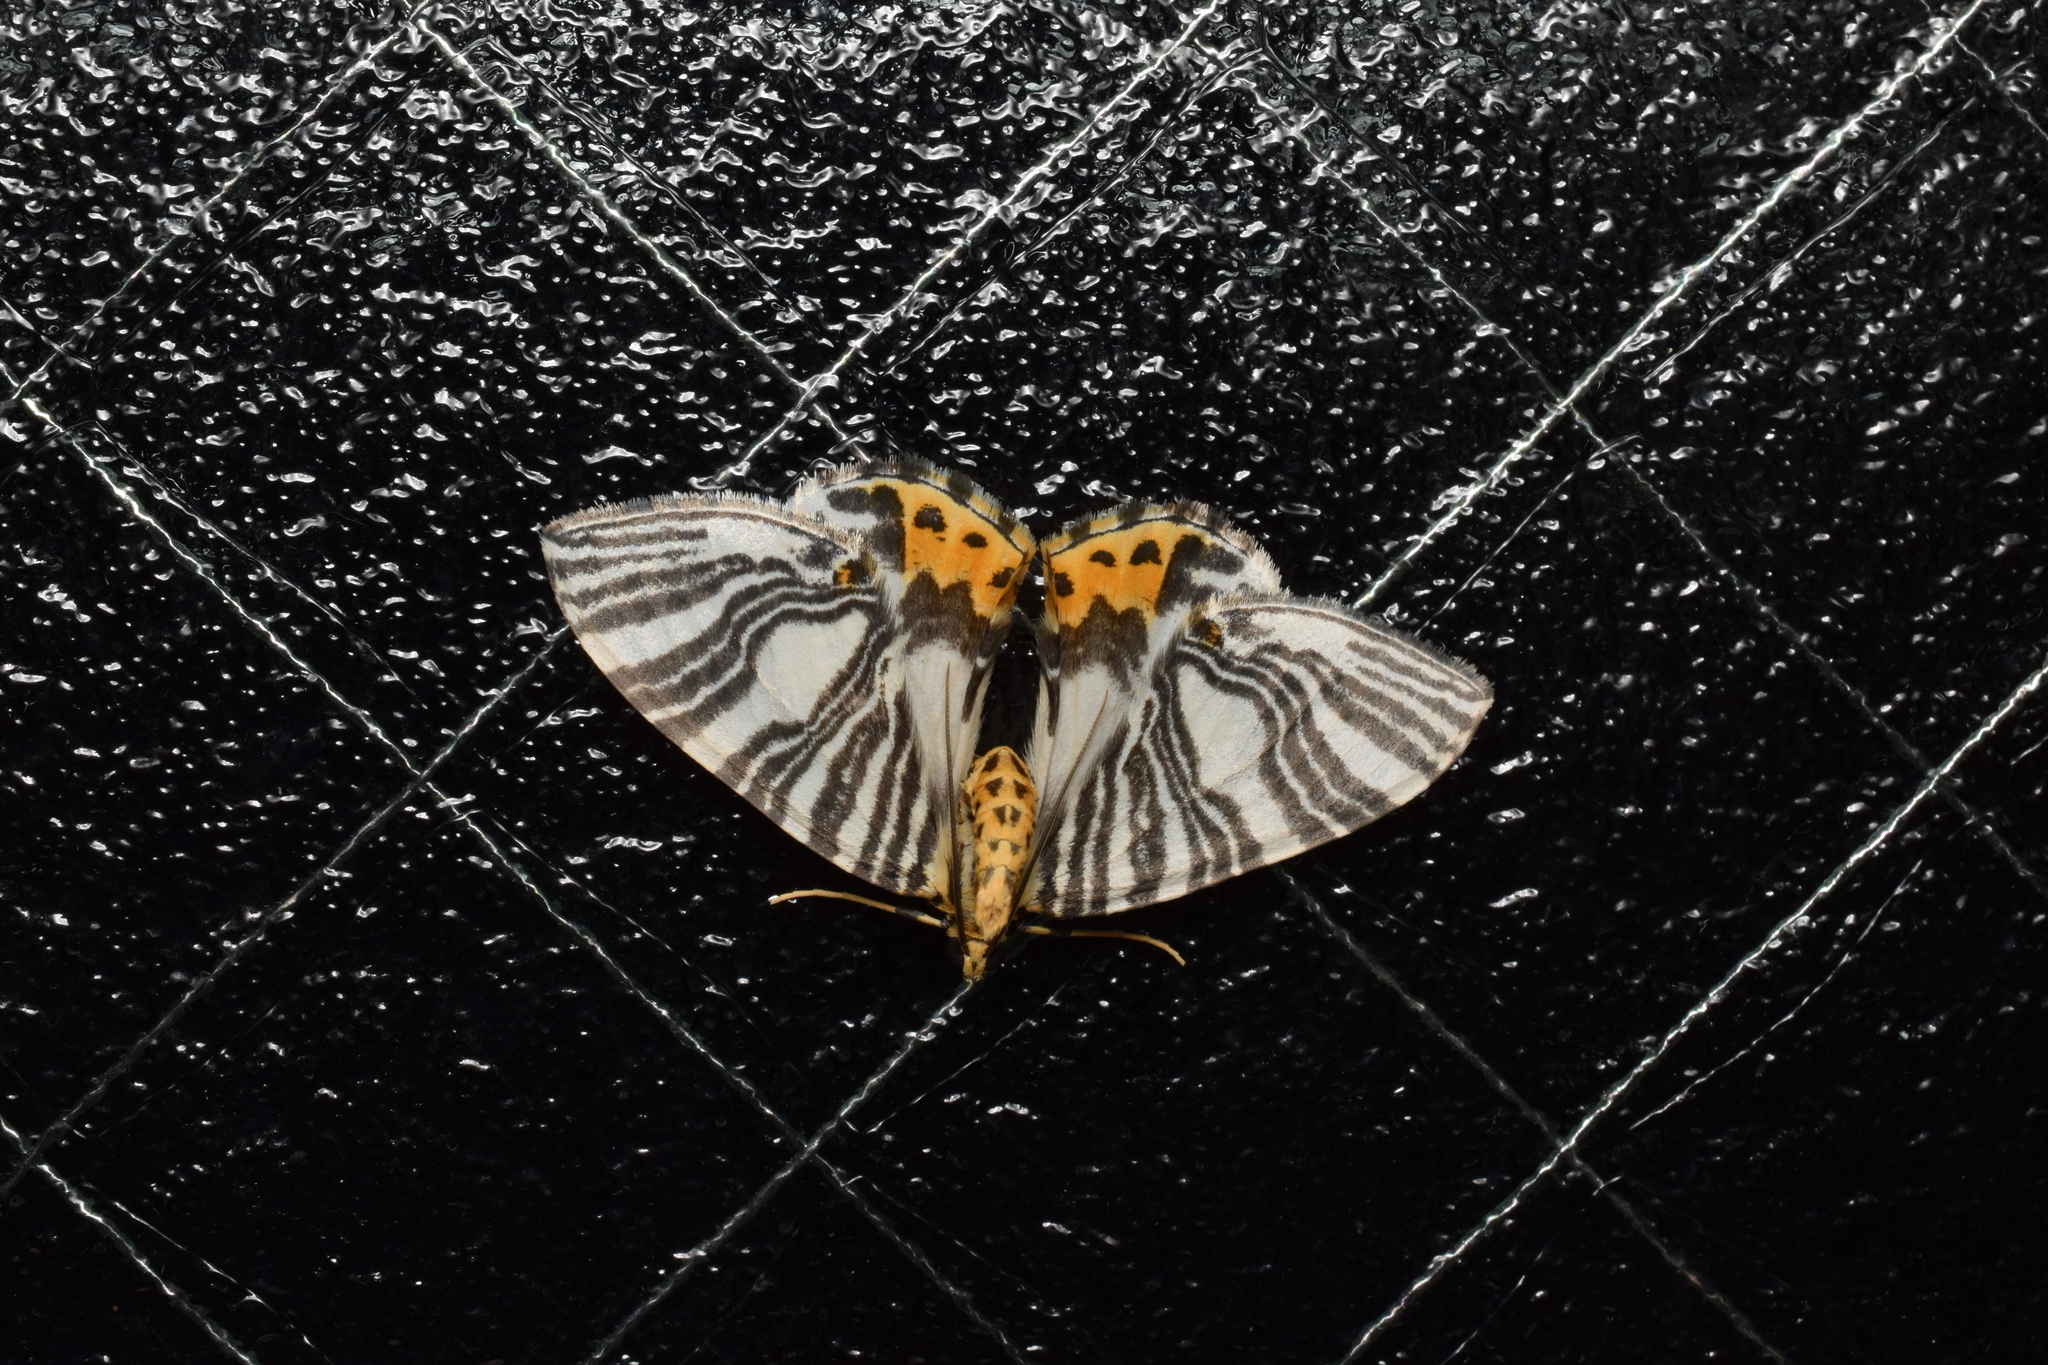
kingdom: Animalia
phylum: Arthropoda
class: Insecta
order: Lepidoptera
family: Geometridae
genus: Callabraxas
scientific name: Callabraxas compositata
